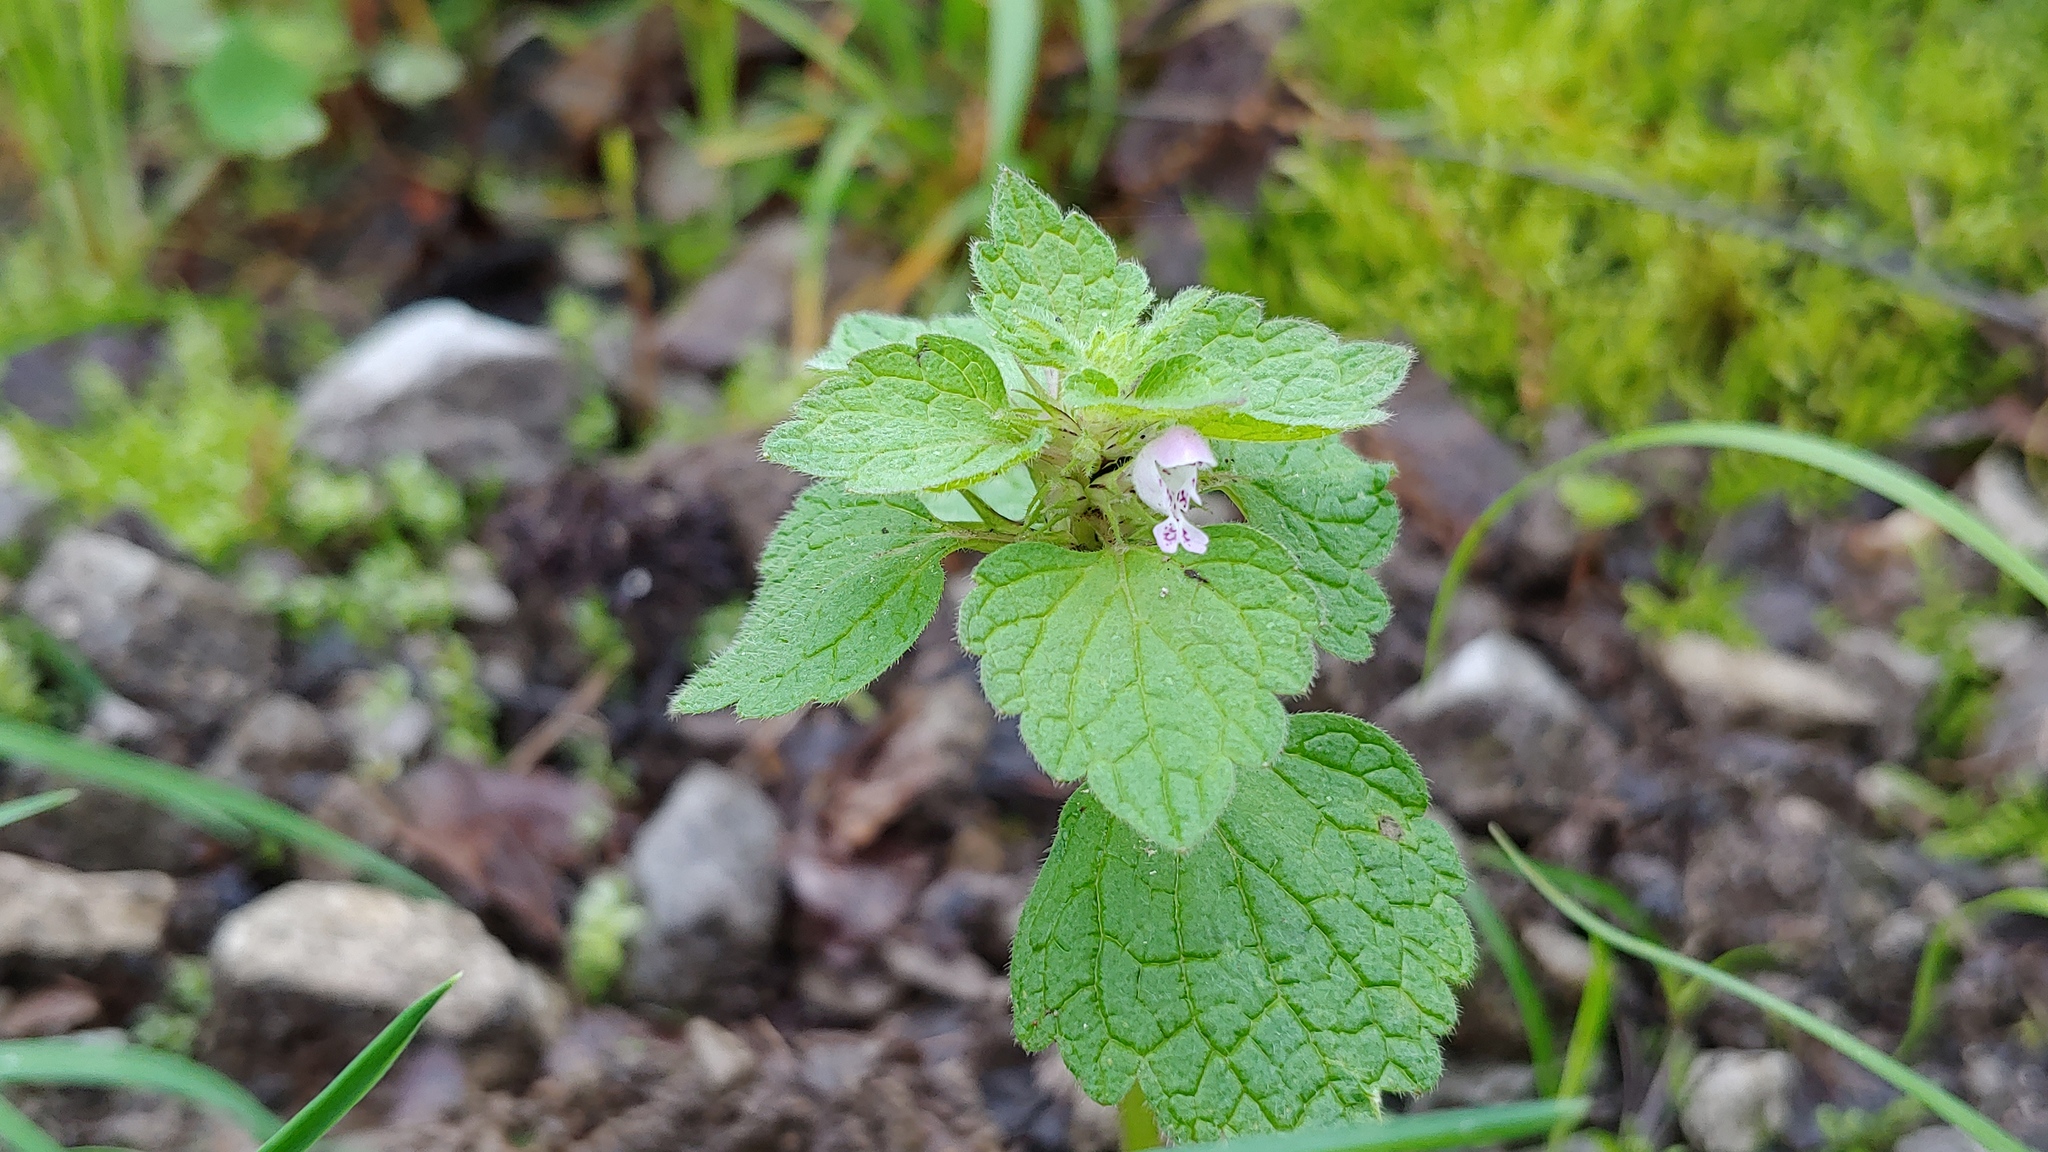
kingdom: Plantae
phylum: Tracheophyta
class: Magnoliopsida
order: Lamiales
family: Lamiaceae
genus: Lamium
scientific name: Lamium purpureum
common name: Red dead-nettle
